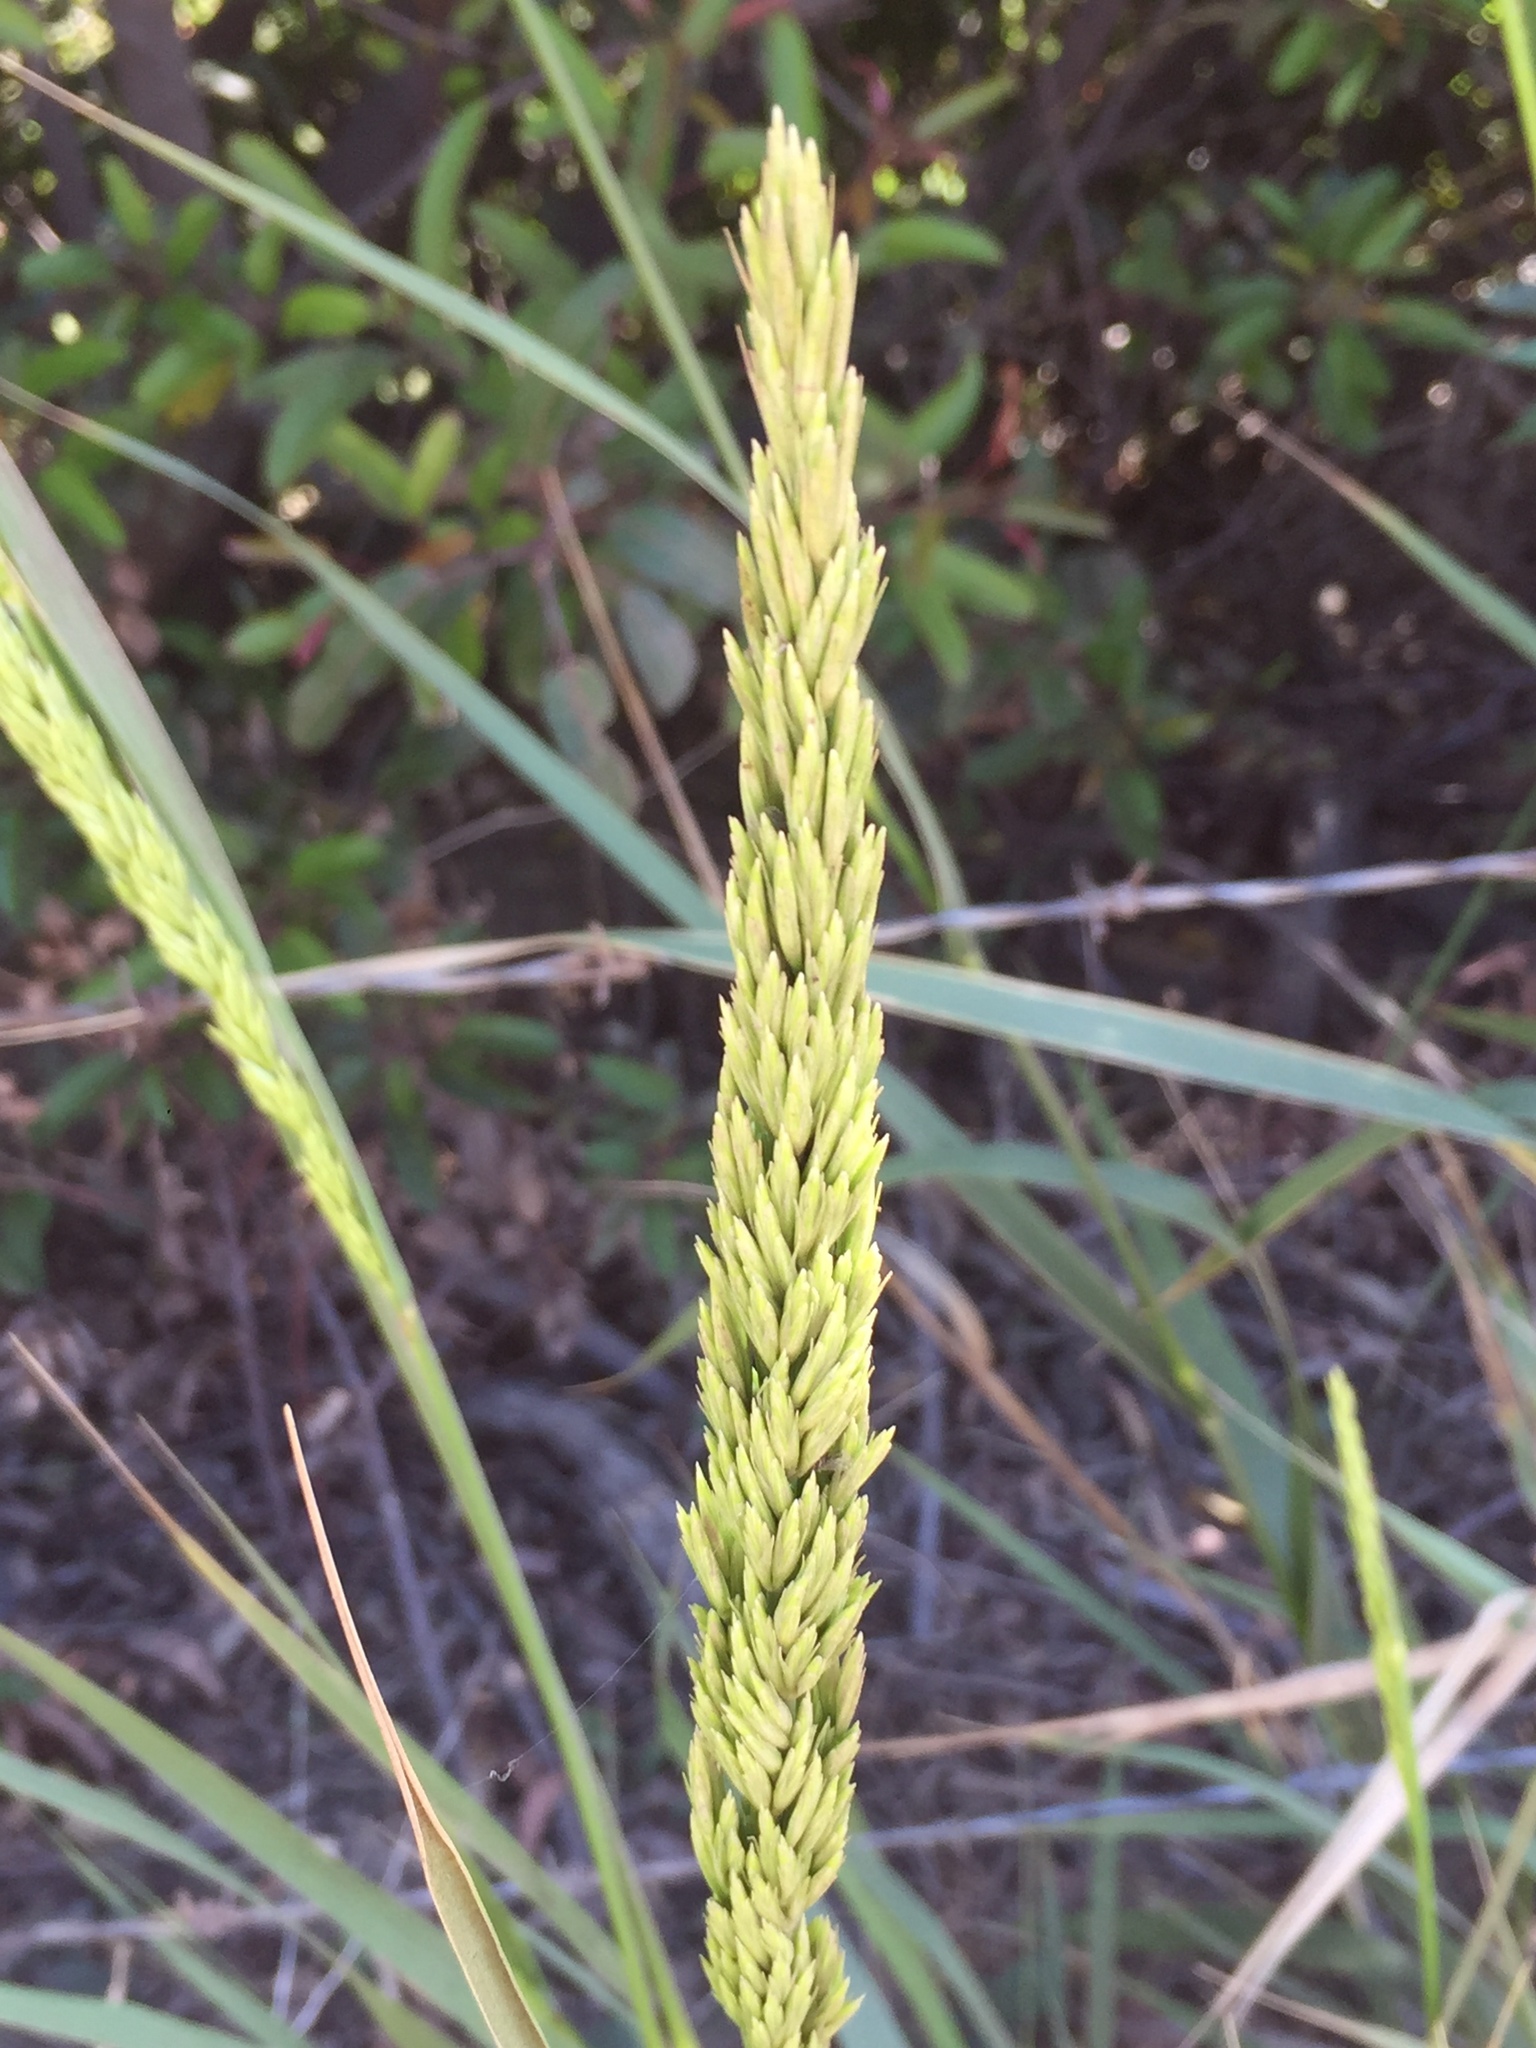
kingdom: Plantae
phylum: Tracheophyta
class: Liliopsida
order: Poales
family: Poaceae
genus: Leymus
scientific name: Leymus condensatus
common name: Giant wild rye
